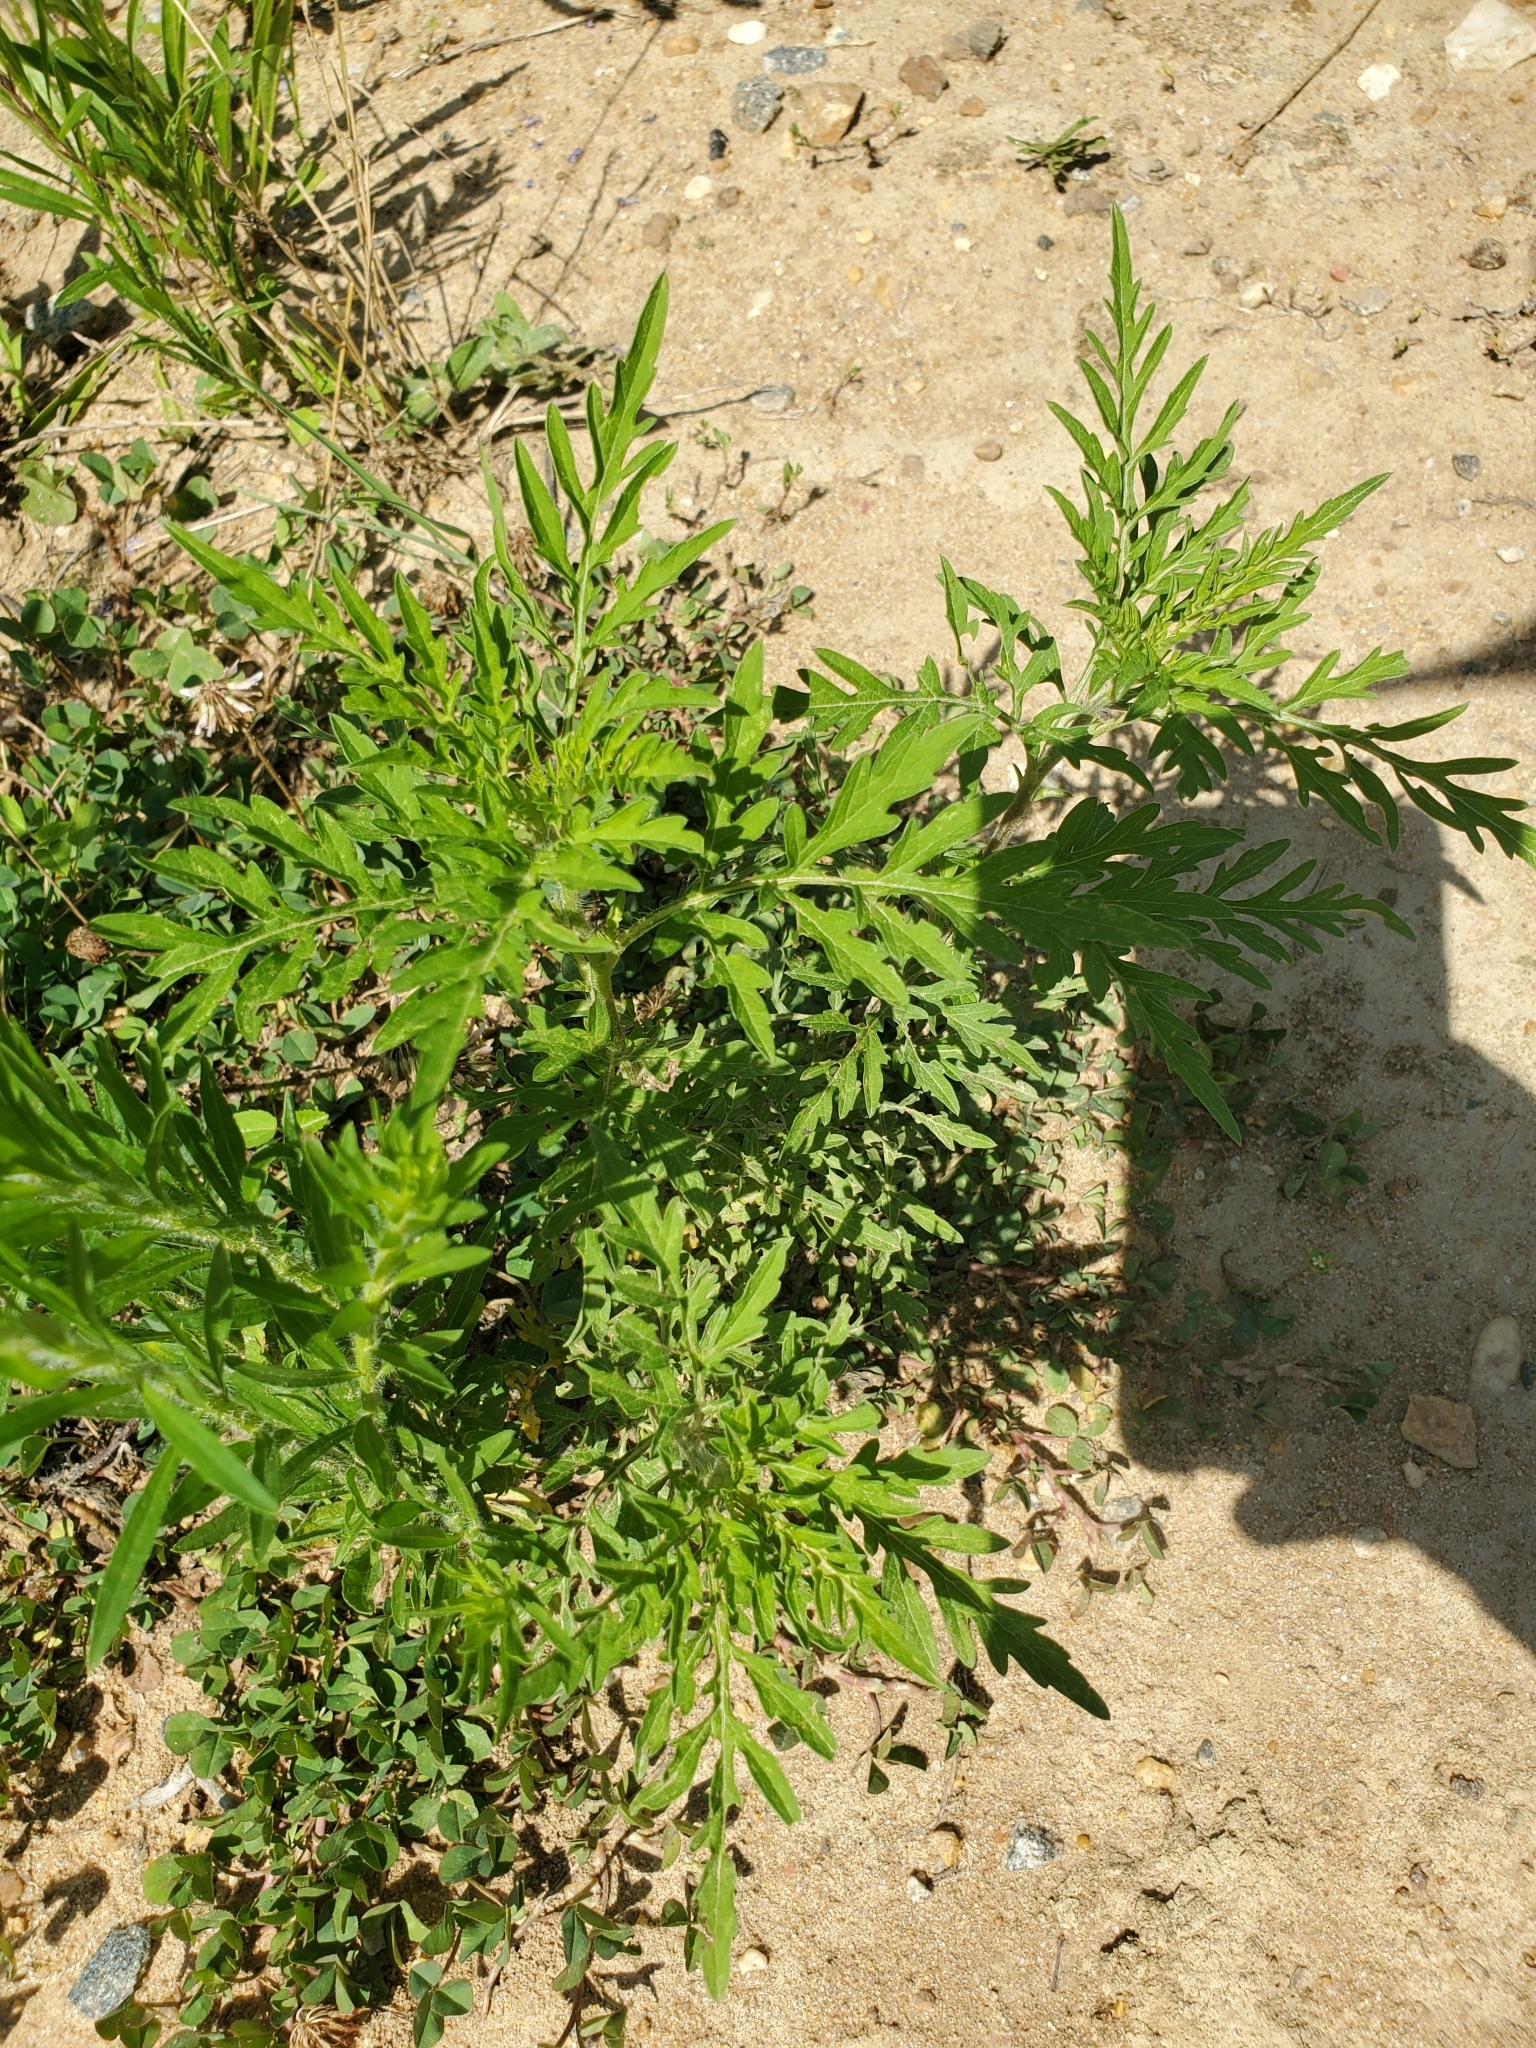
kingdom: Plantae
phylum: Tracheophyta
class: Magnoliopsida
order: Asterales
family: Asteraceae
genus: Ambrosia
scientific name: Ambrosia artemisiifolia
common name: Annual ragweed
